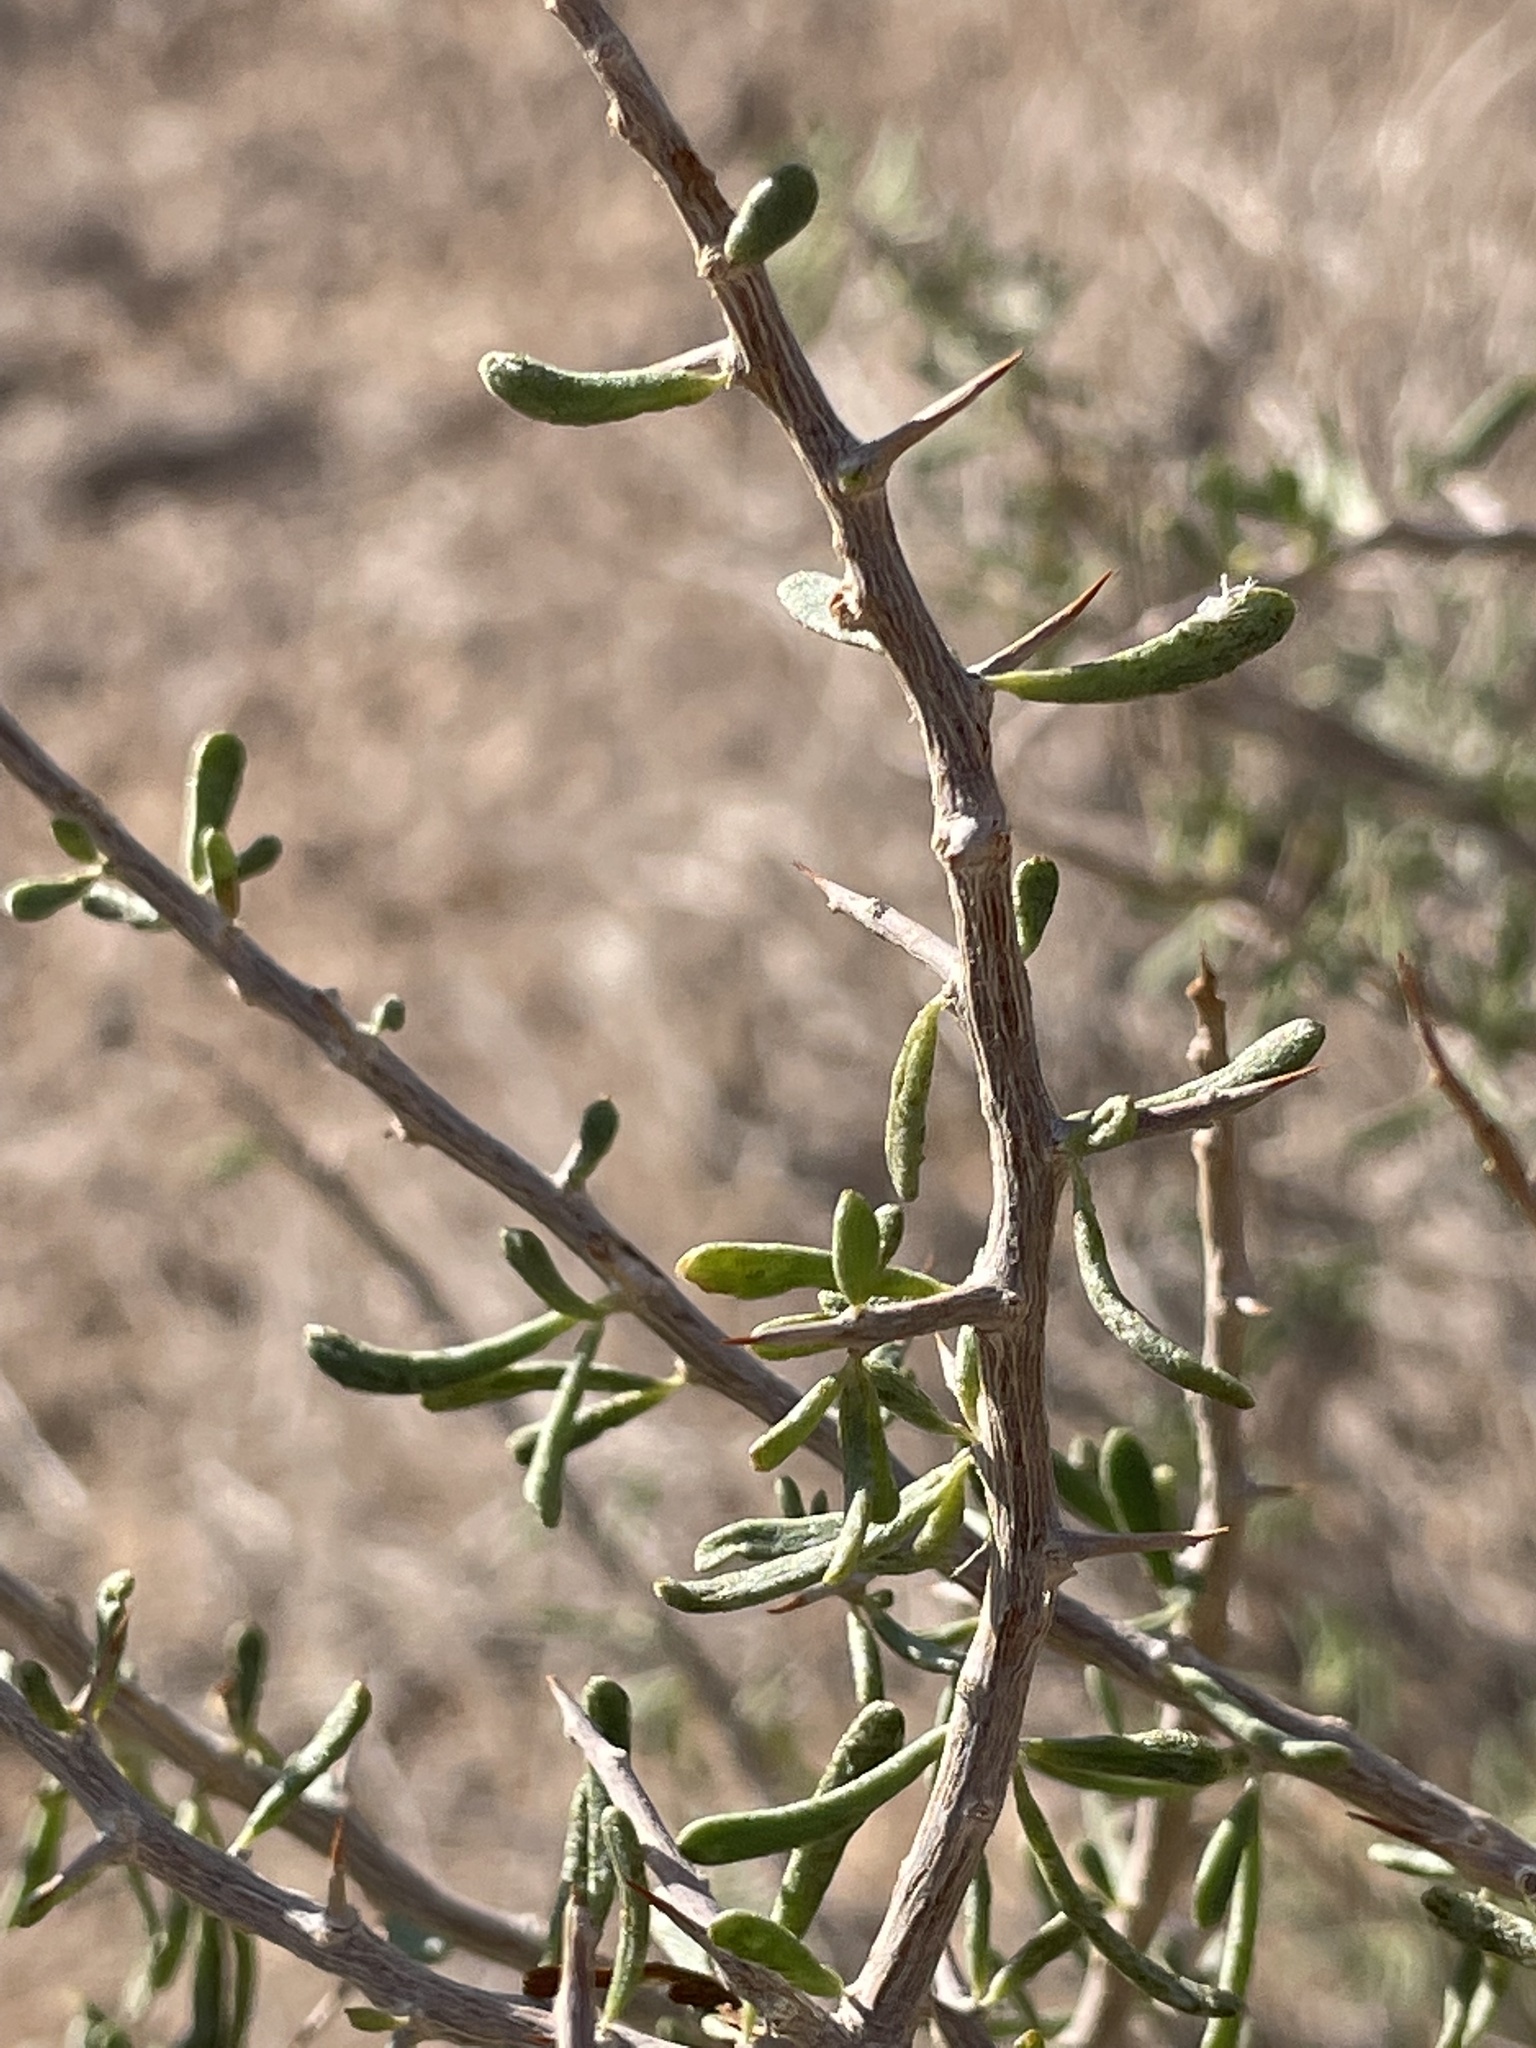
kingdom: Plantae
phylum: Tracheophyta
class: Magnoliopsida
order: Solanales
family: Solanaceae
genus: Lycium
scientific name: Lycium andersonii
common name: Water-jacket
